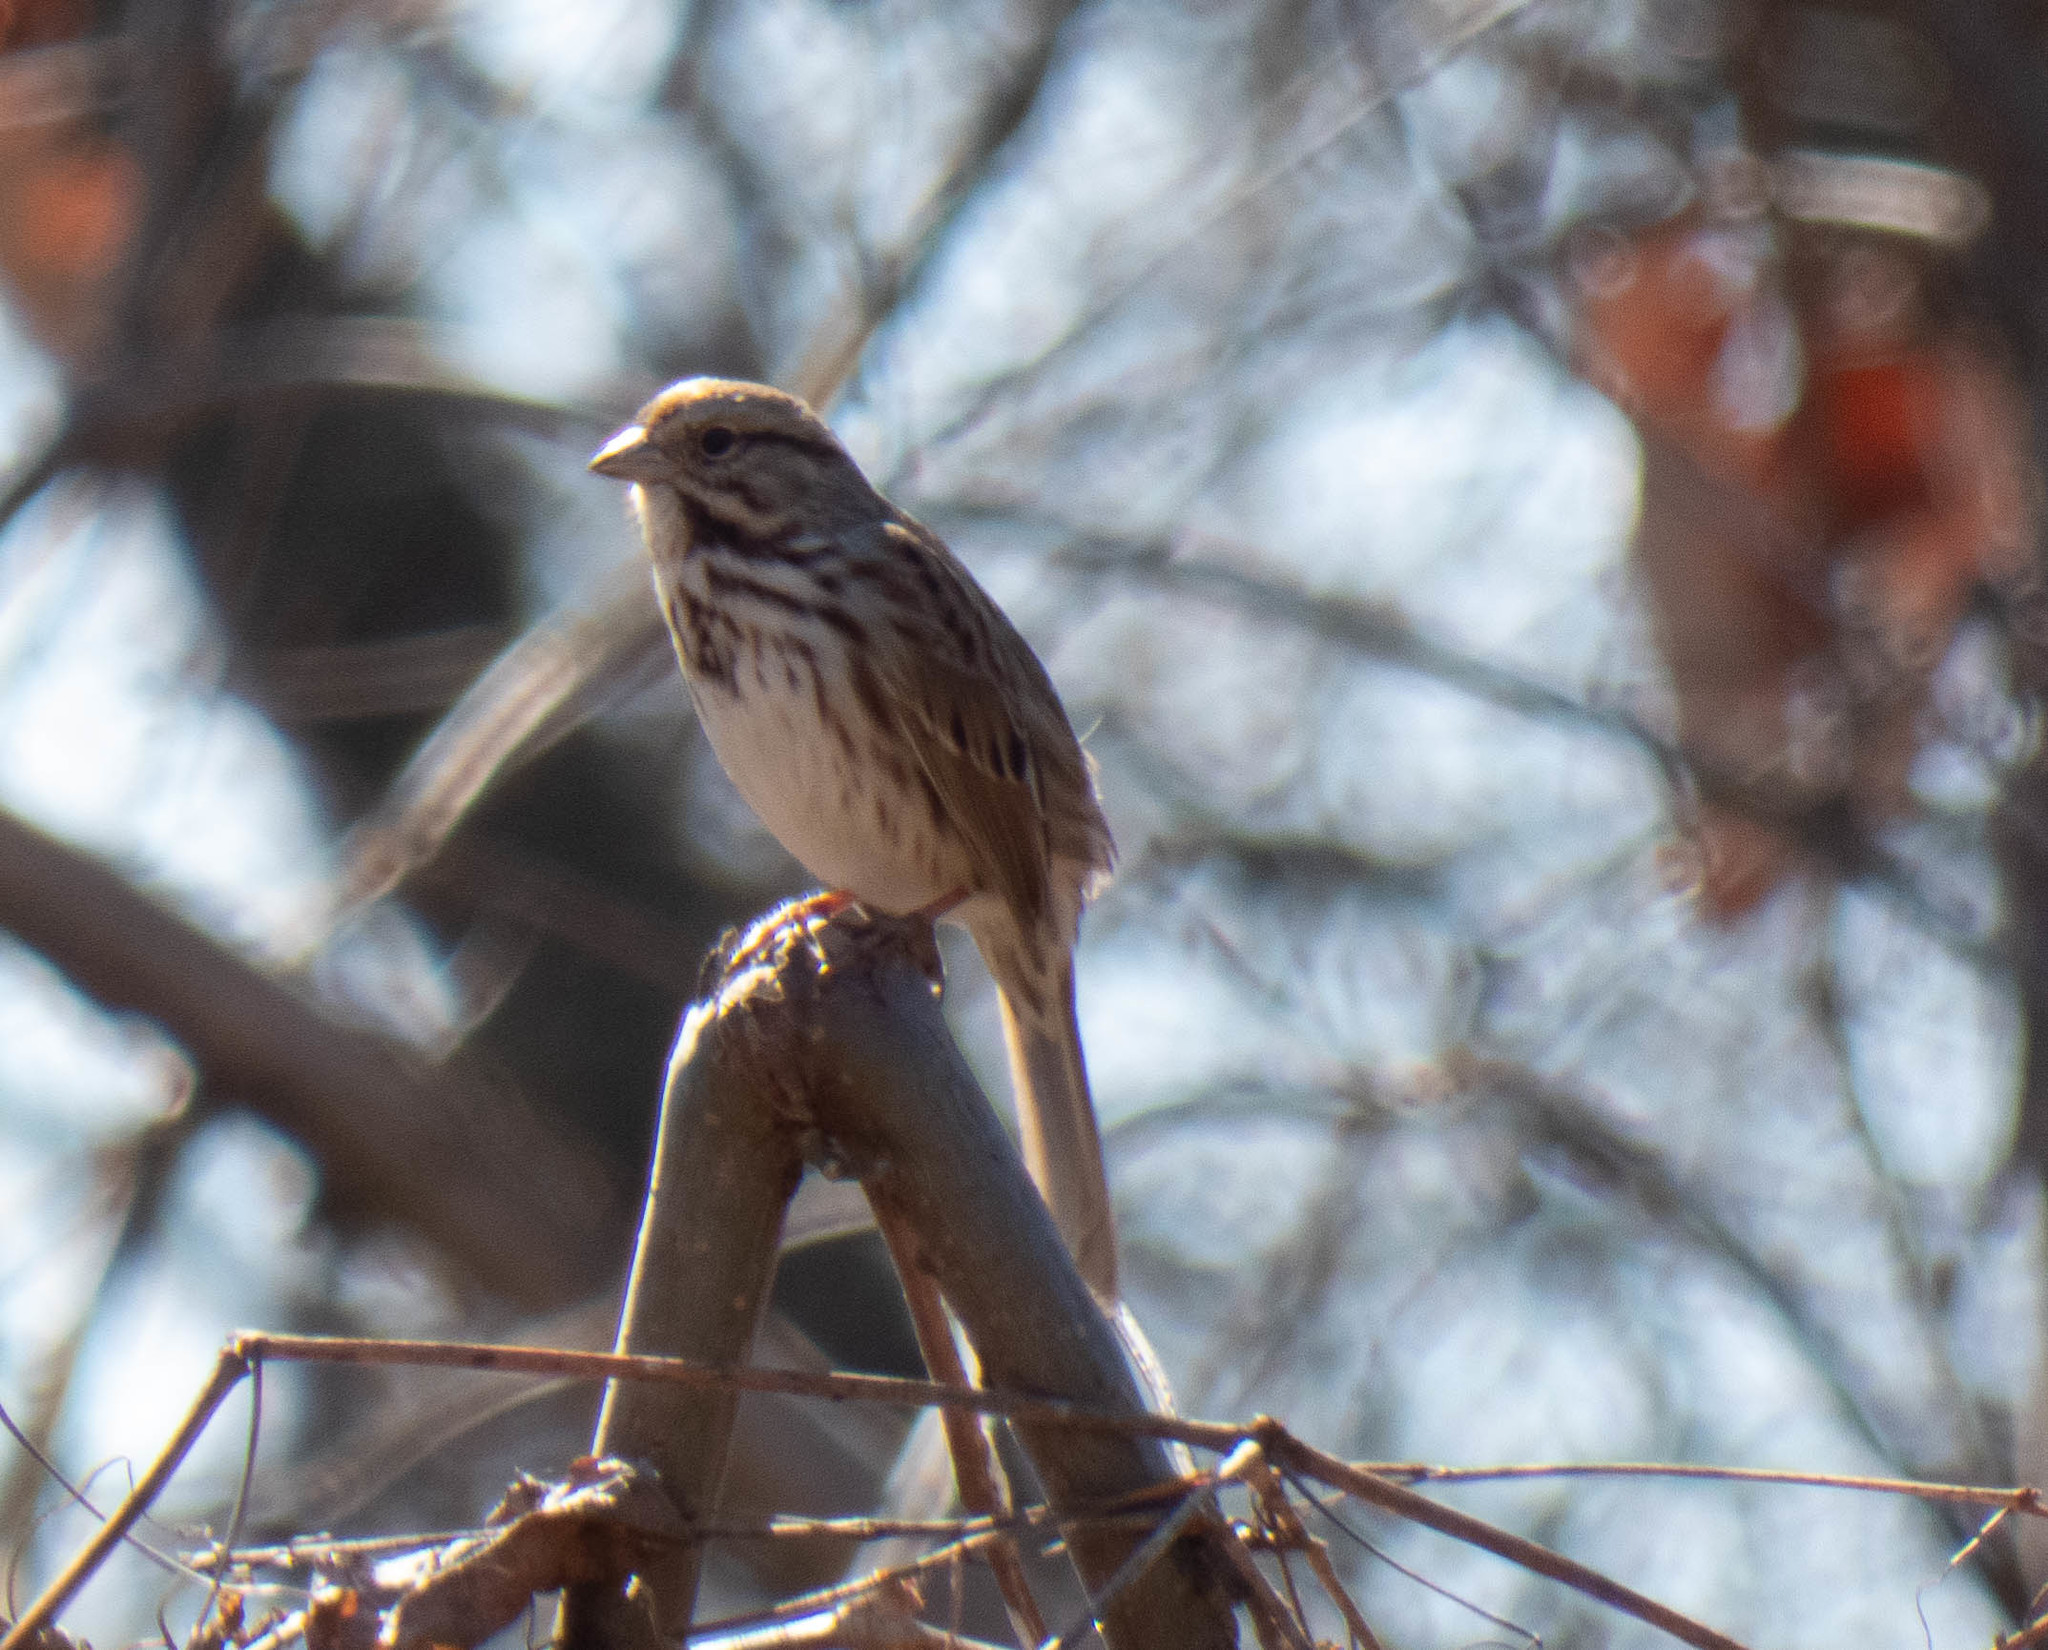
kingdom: Animalia
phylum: Chordata
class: Aves
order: Passeriformes
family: Passerellidae
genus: Melospiza
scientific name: Melospiza melodia
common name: Song sparrow
